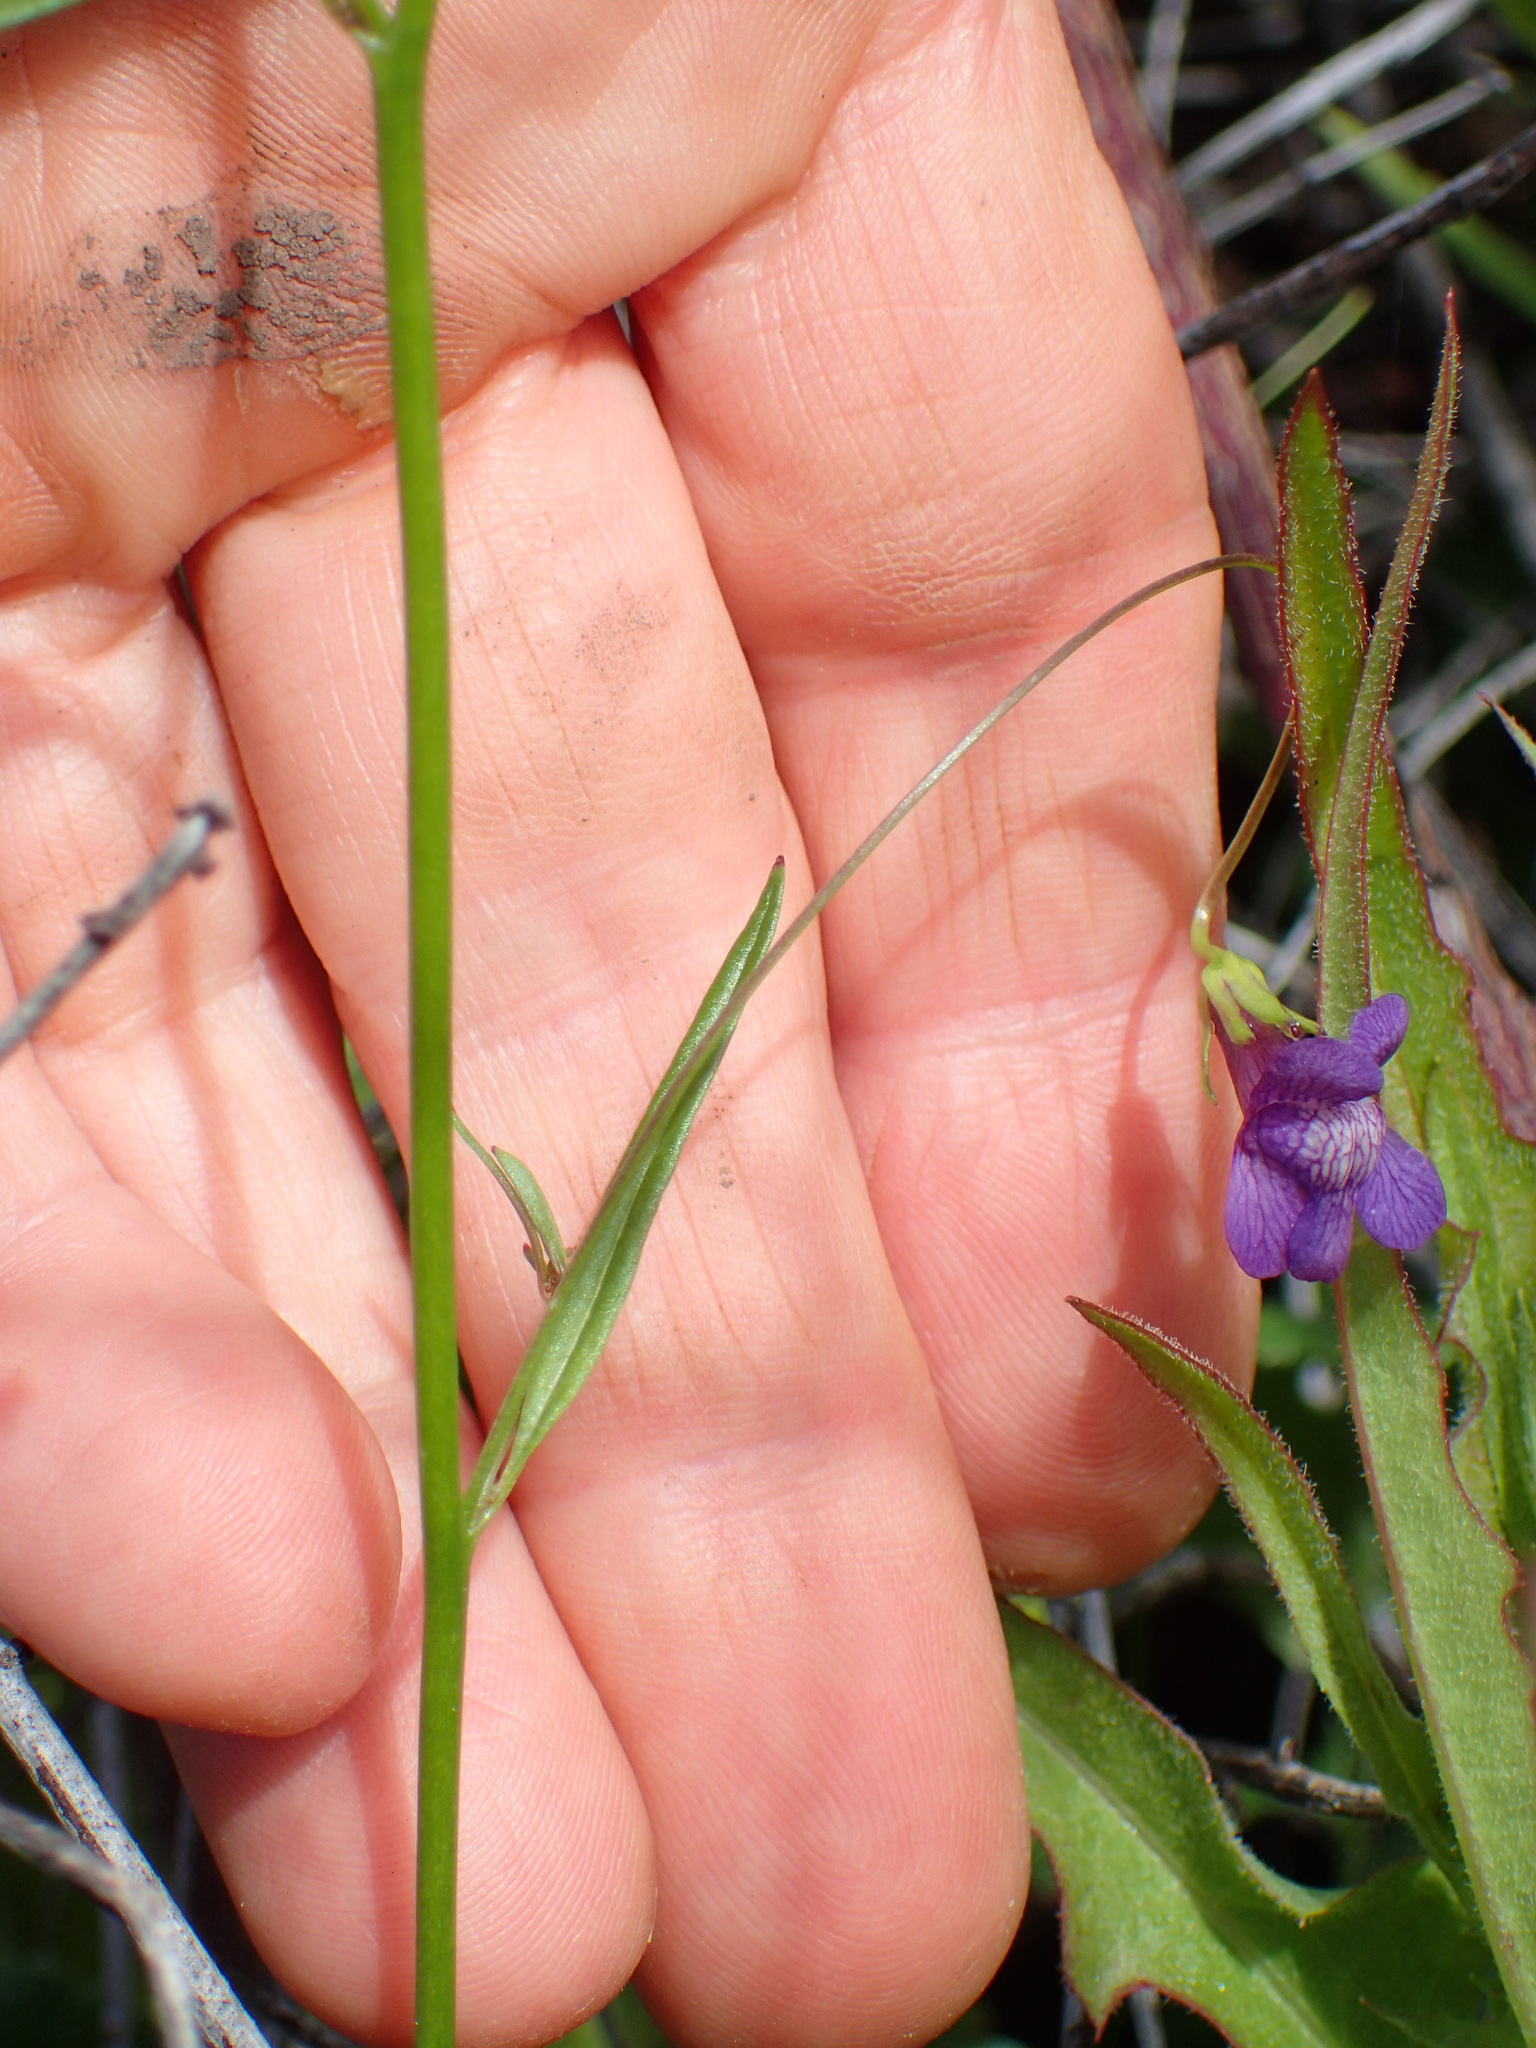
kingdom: Plantae
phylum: Tracheophyta
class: Magnoliopsida
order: Lamiales
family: Plantaginaceae
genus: Neogaerrhinum
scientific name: Neogaerrhinum strictum
